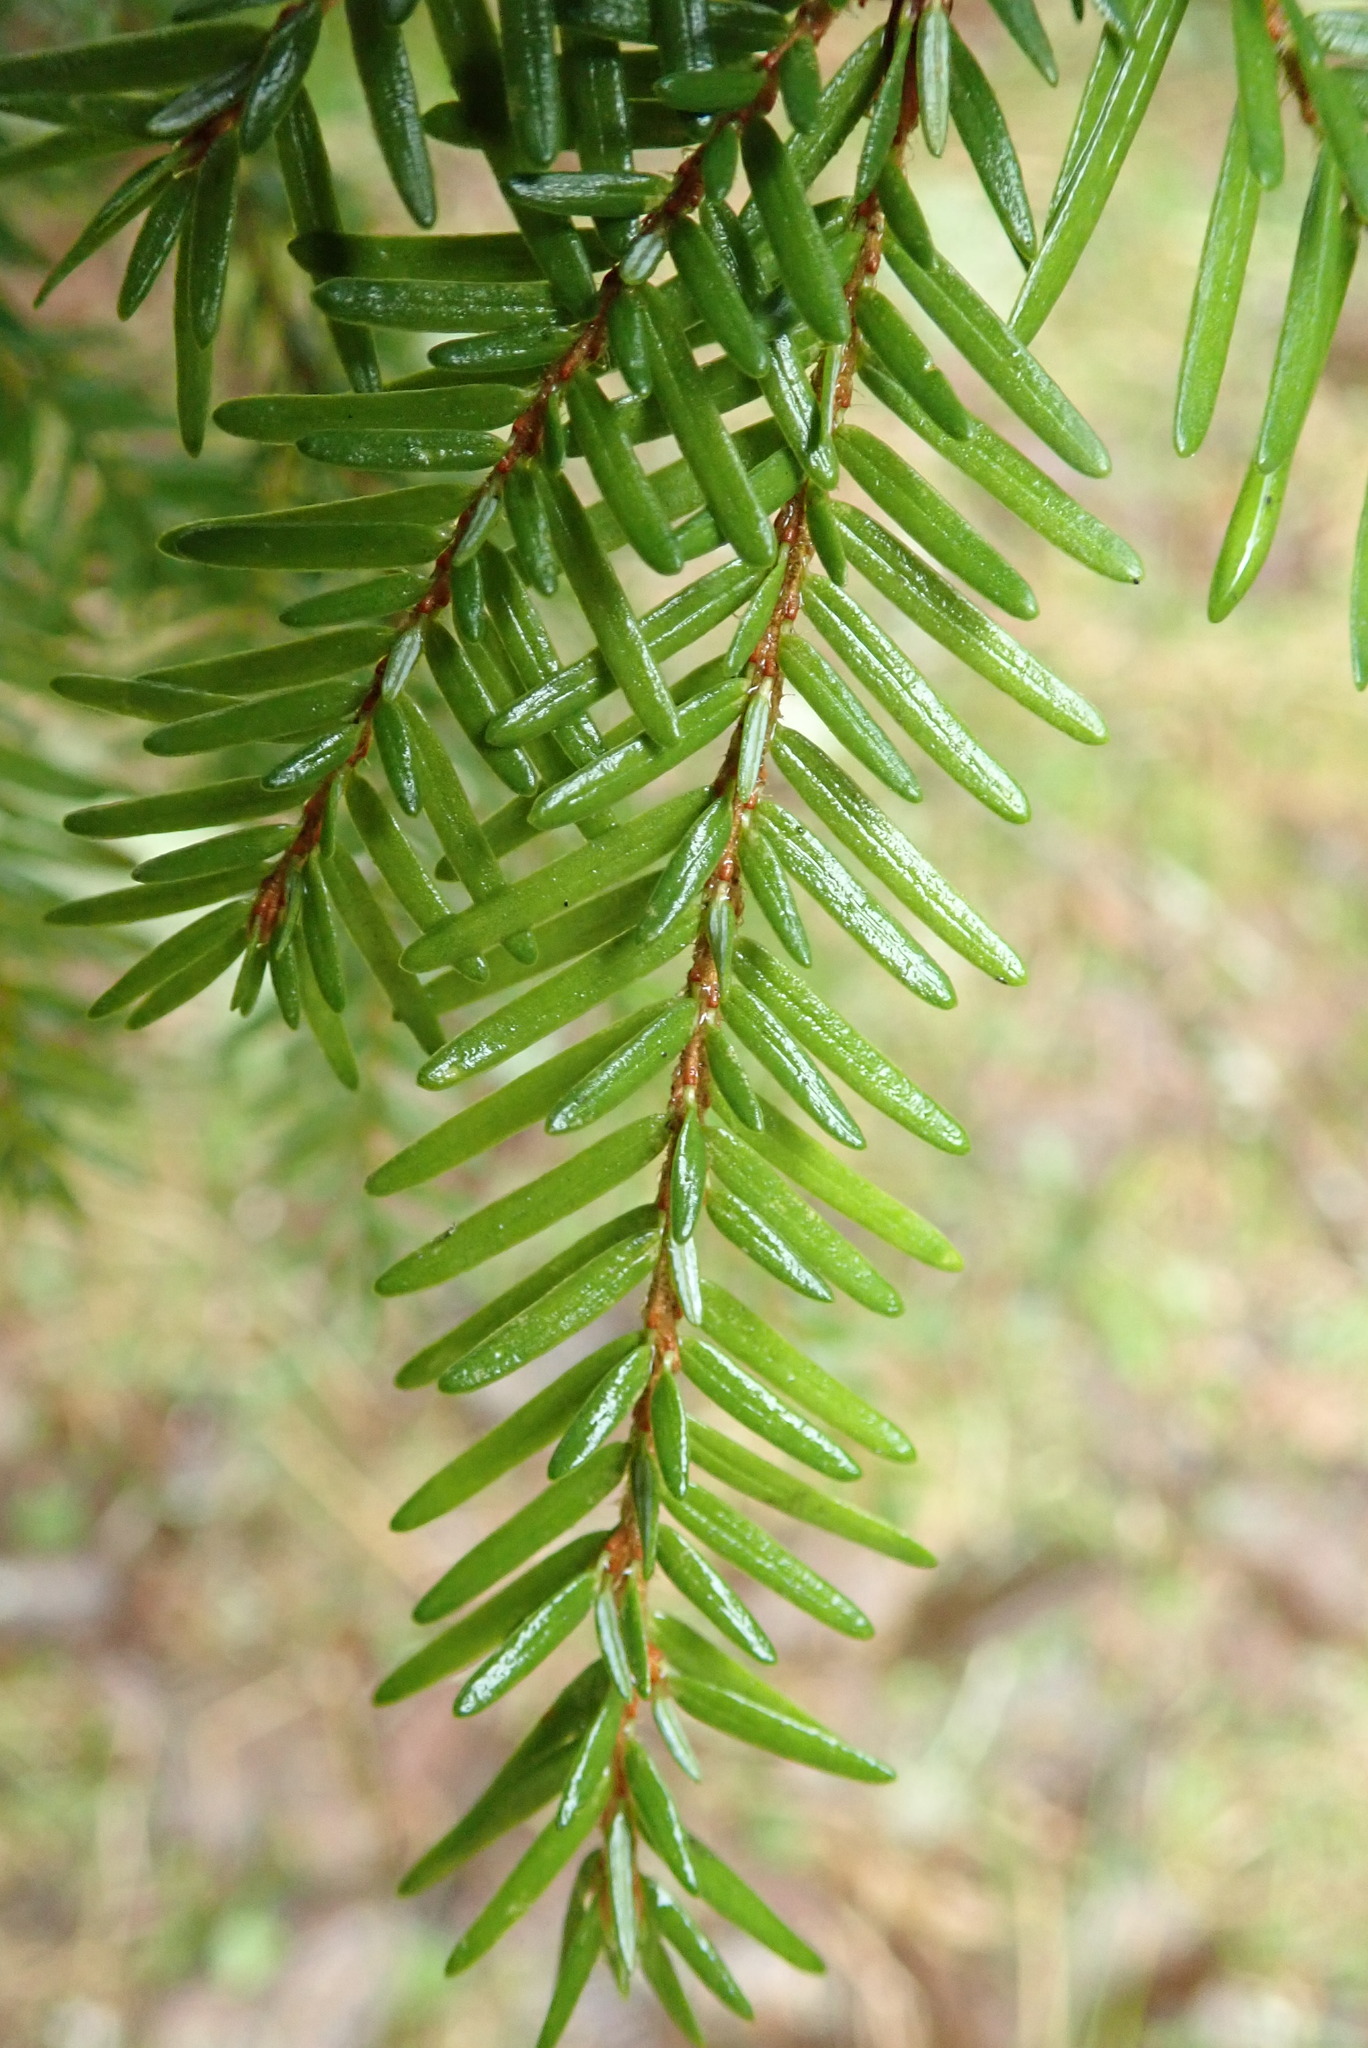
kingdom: Plantae
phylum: Tracheophyta
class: Pinopsida
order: Pinales
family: Pinaceae
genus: Tsuga
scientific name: Tsuga heterophylla
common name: Western hemlock
